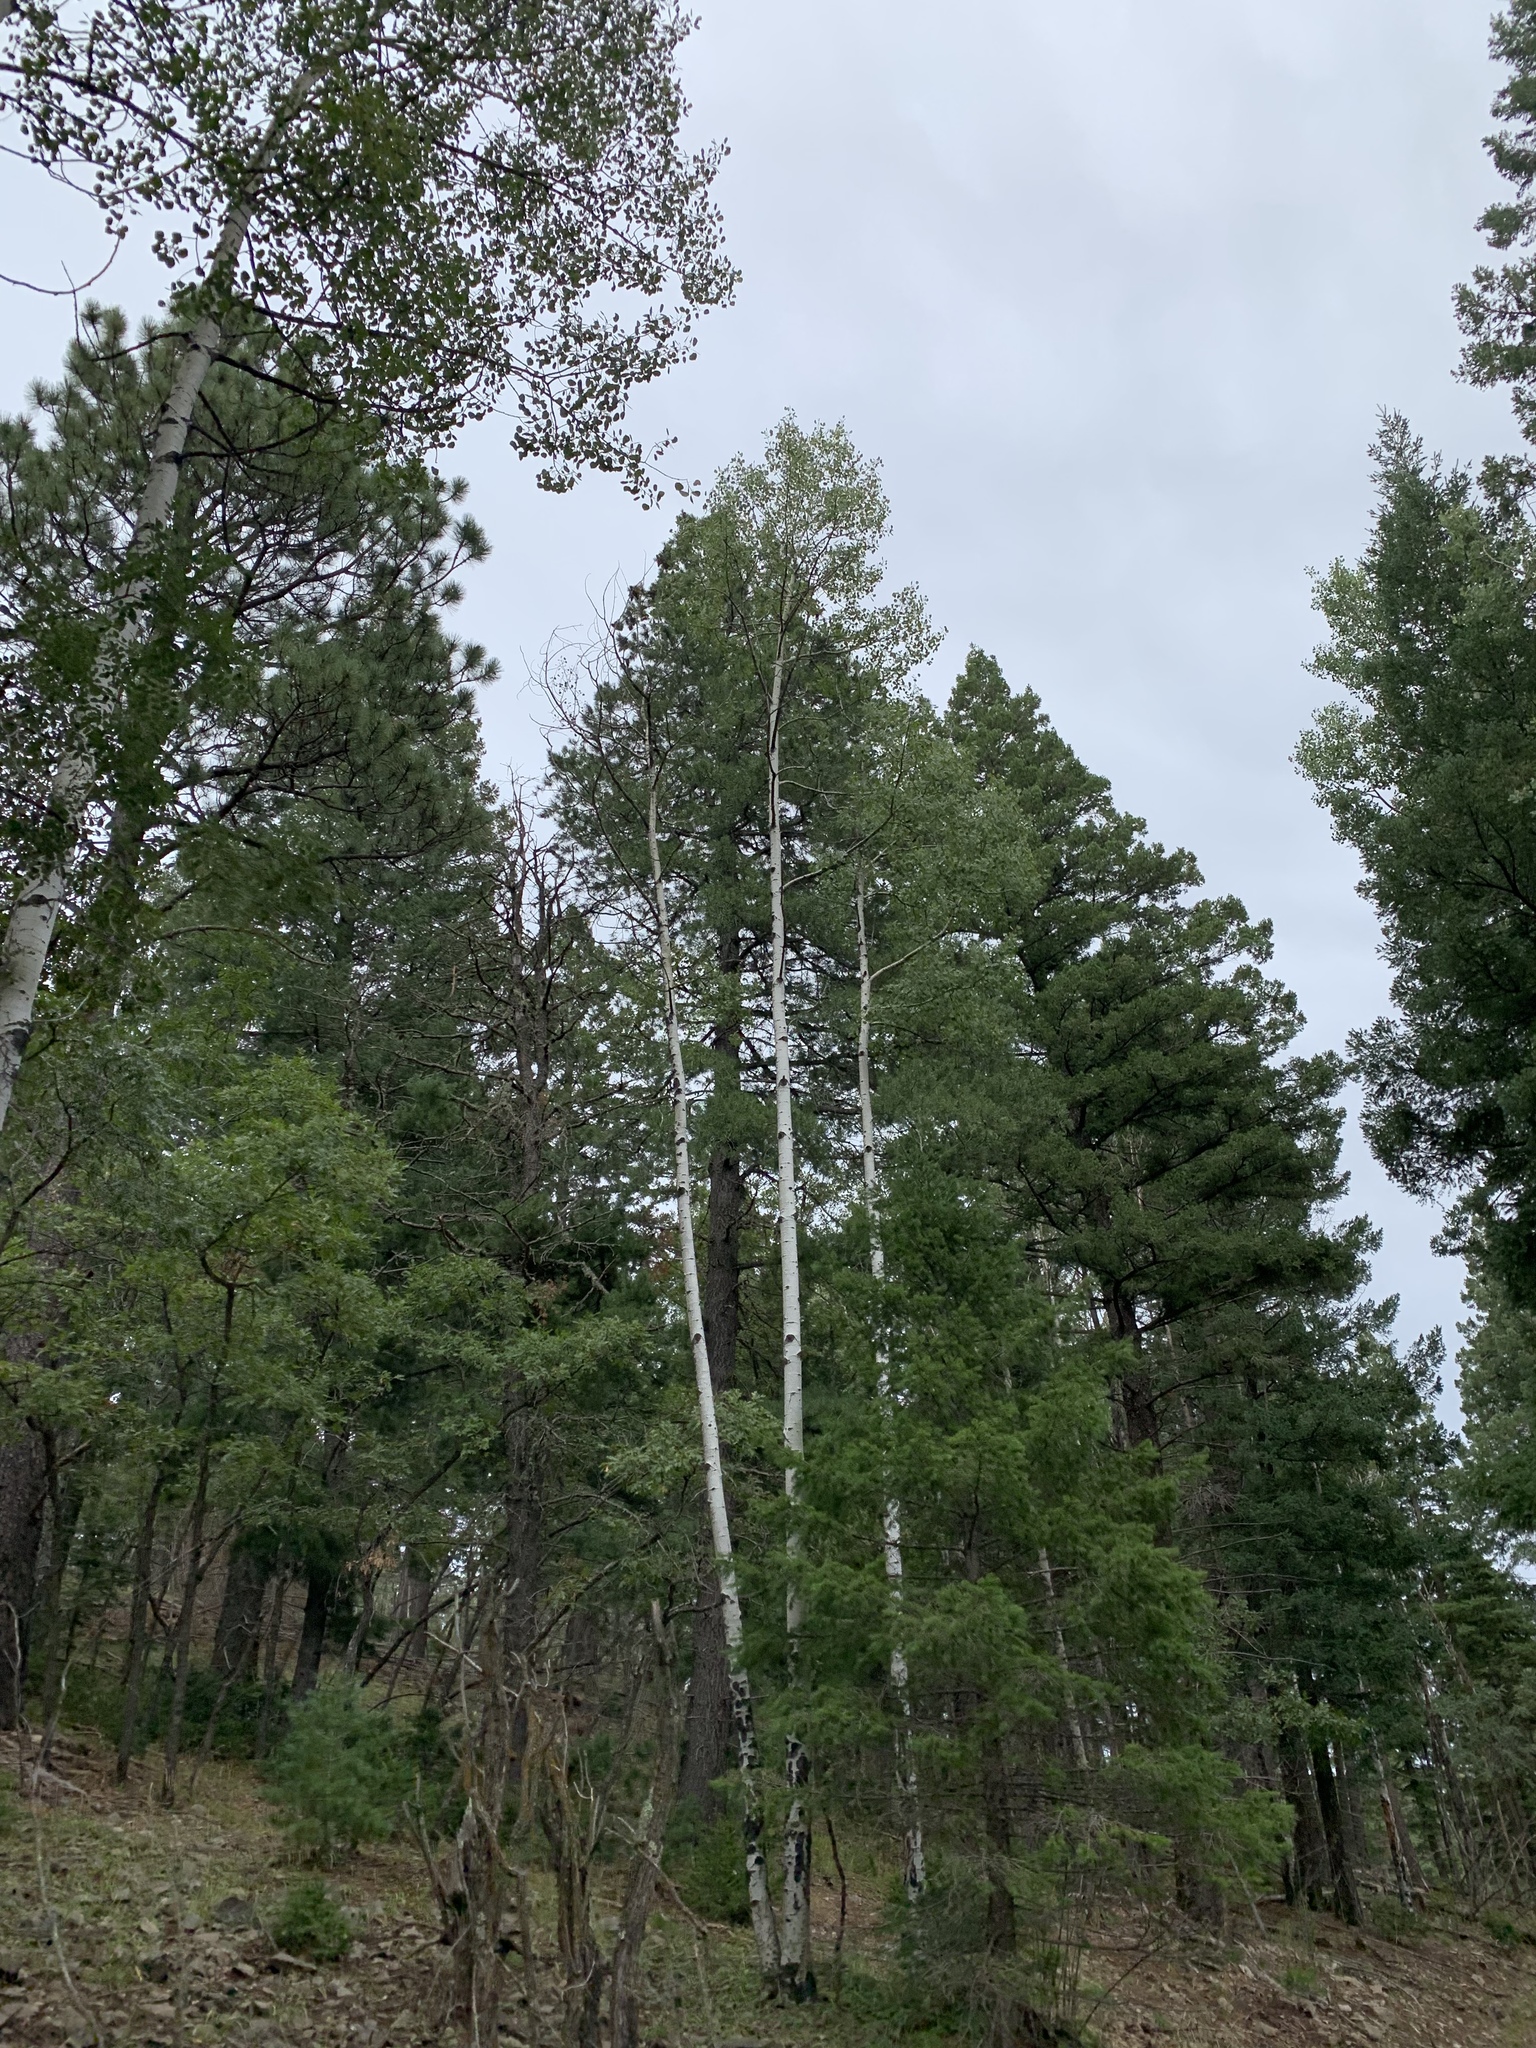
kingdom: Plantae
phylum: Tracheophyta
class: Magnoliopsida
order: Malpighiales
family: Salicaceae
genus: Populus
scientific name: Populus tremuloides
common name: Quaking aspen
